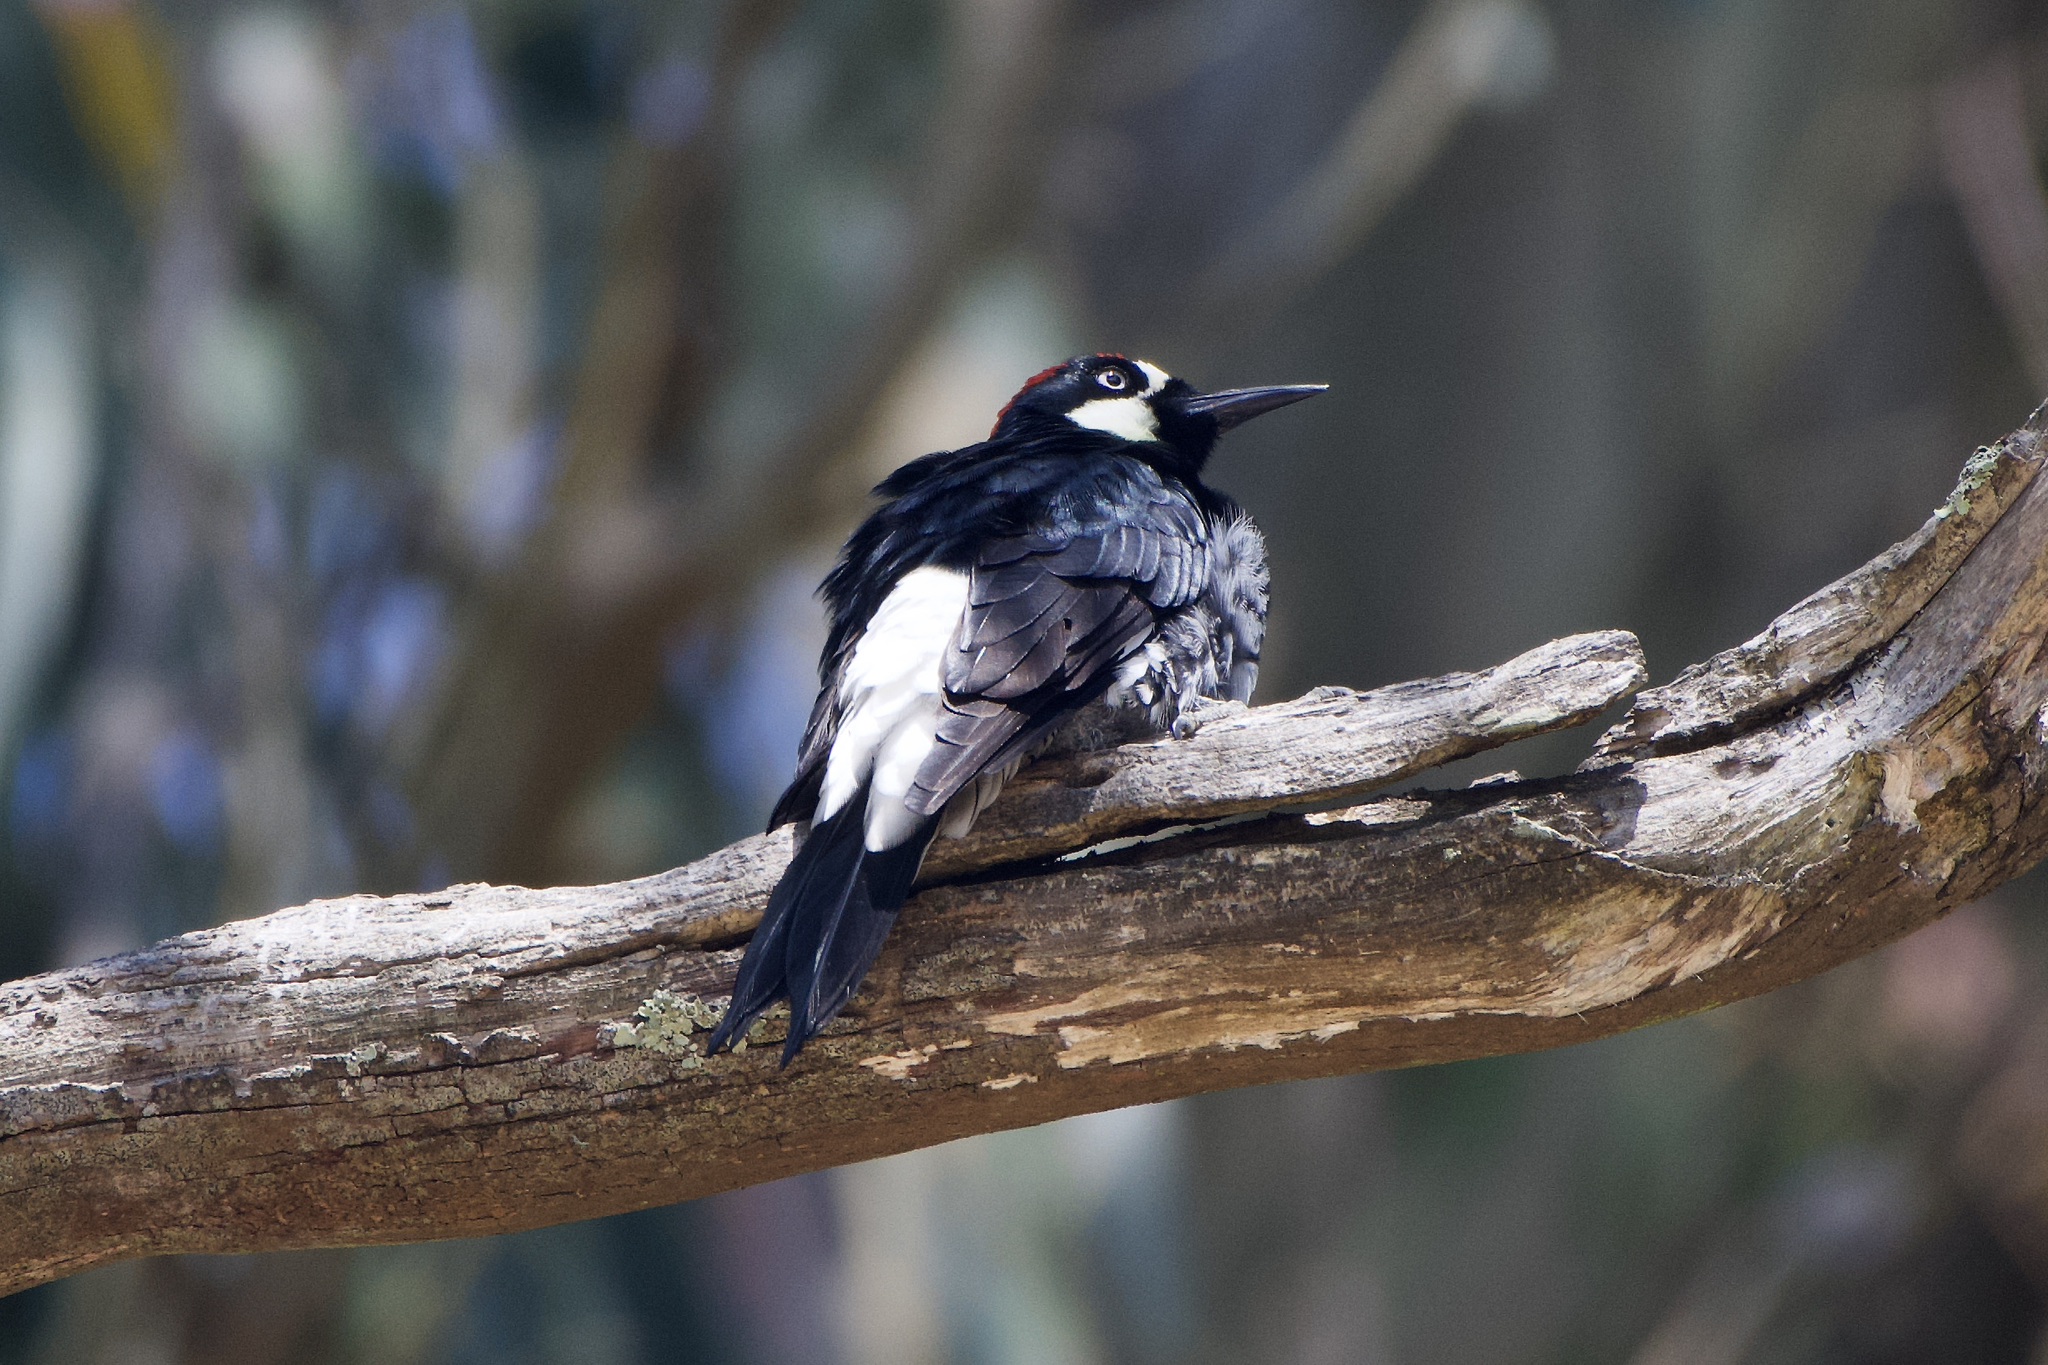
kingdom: Animalia
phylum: Chordata
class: Aves
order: Piciformes
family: Picidae
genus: Melanerpes
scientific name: Melanerpes formicivorus
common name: Acorn woodpecker
